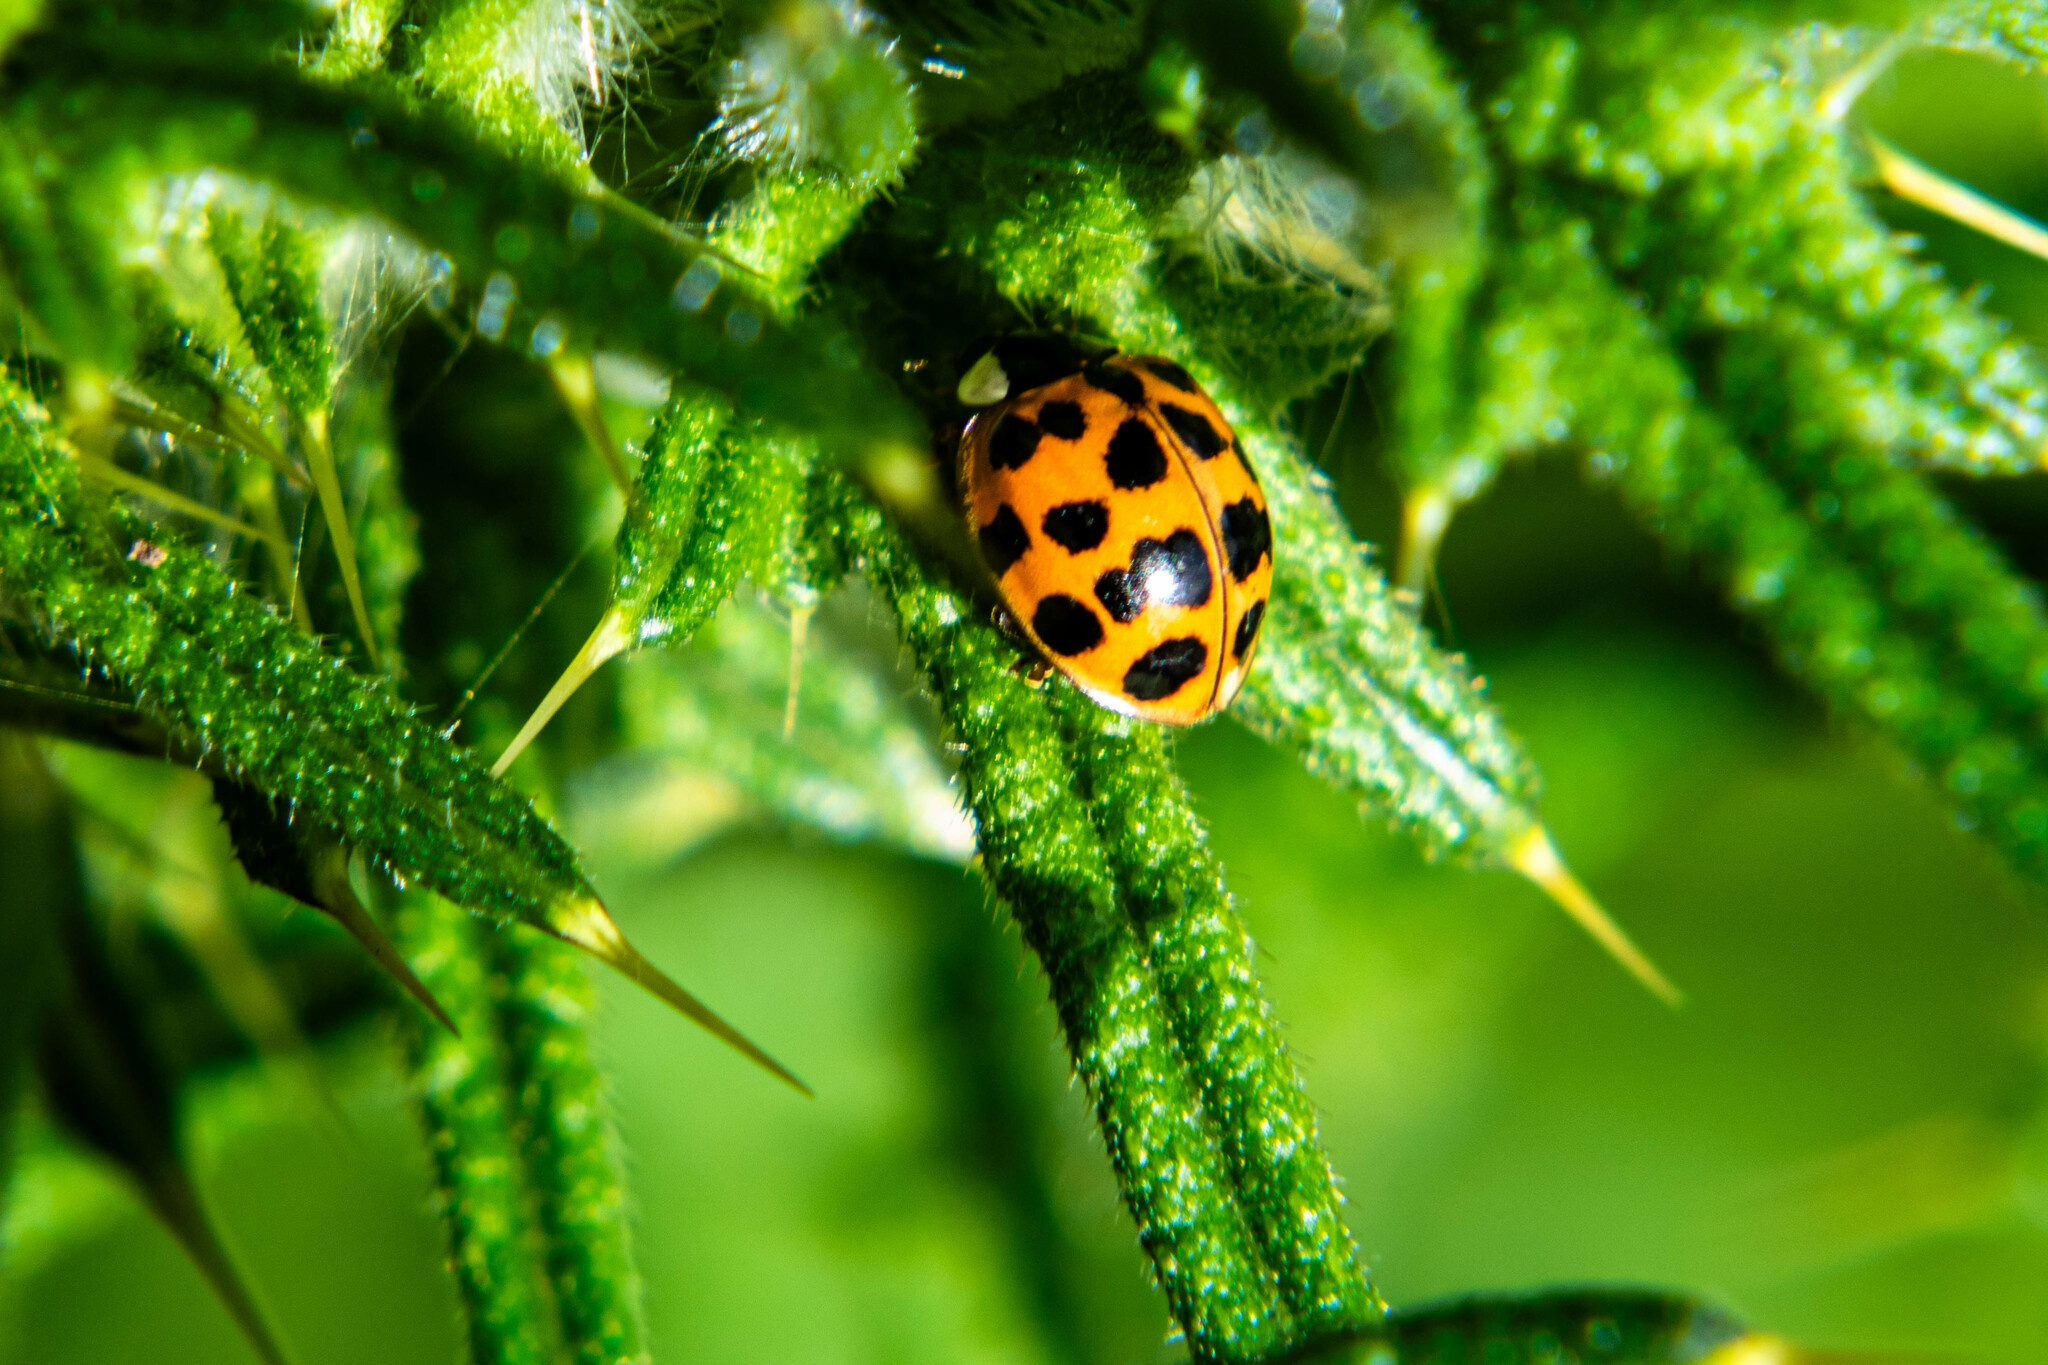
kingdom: Animalia
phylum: Arthropoda
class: Insecta
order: Coleoptera
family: Coccinellidae
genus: Harmonia
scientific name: Harmonia axyridis
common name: Harlequin ladybird
